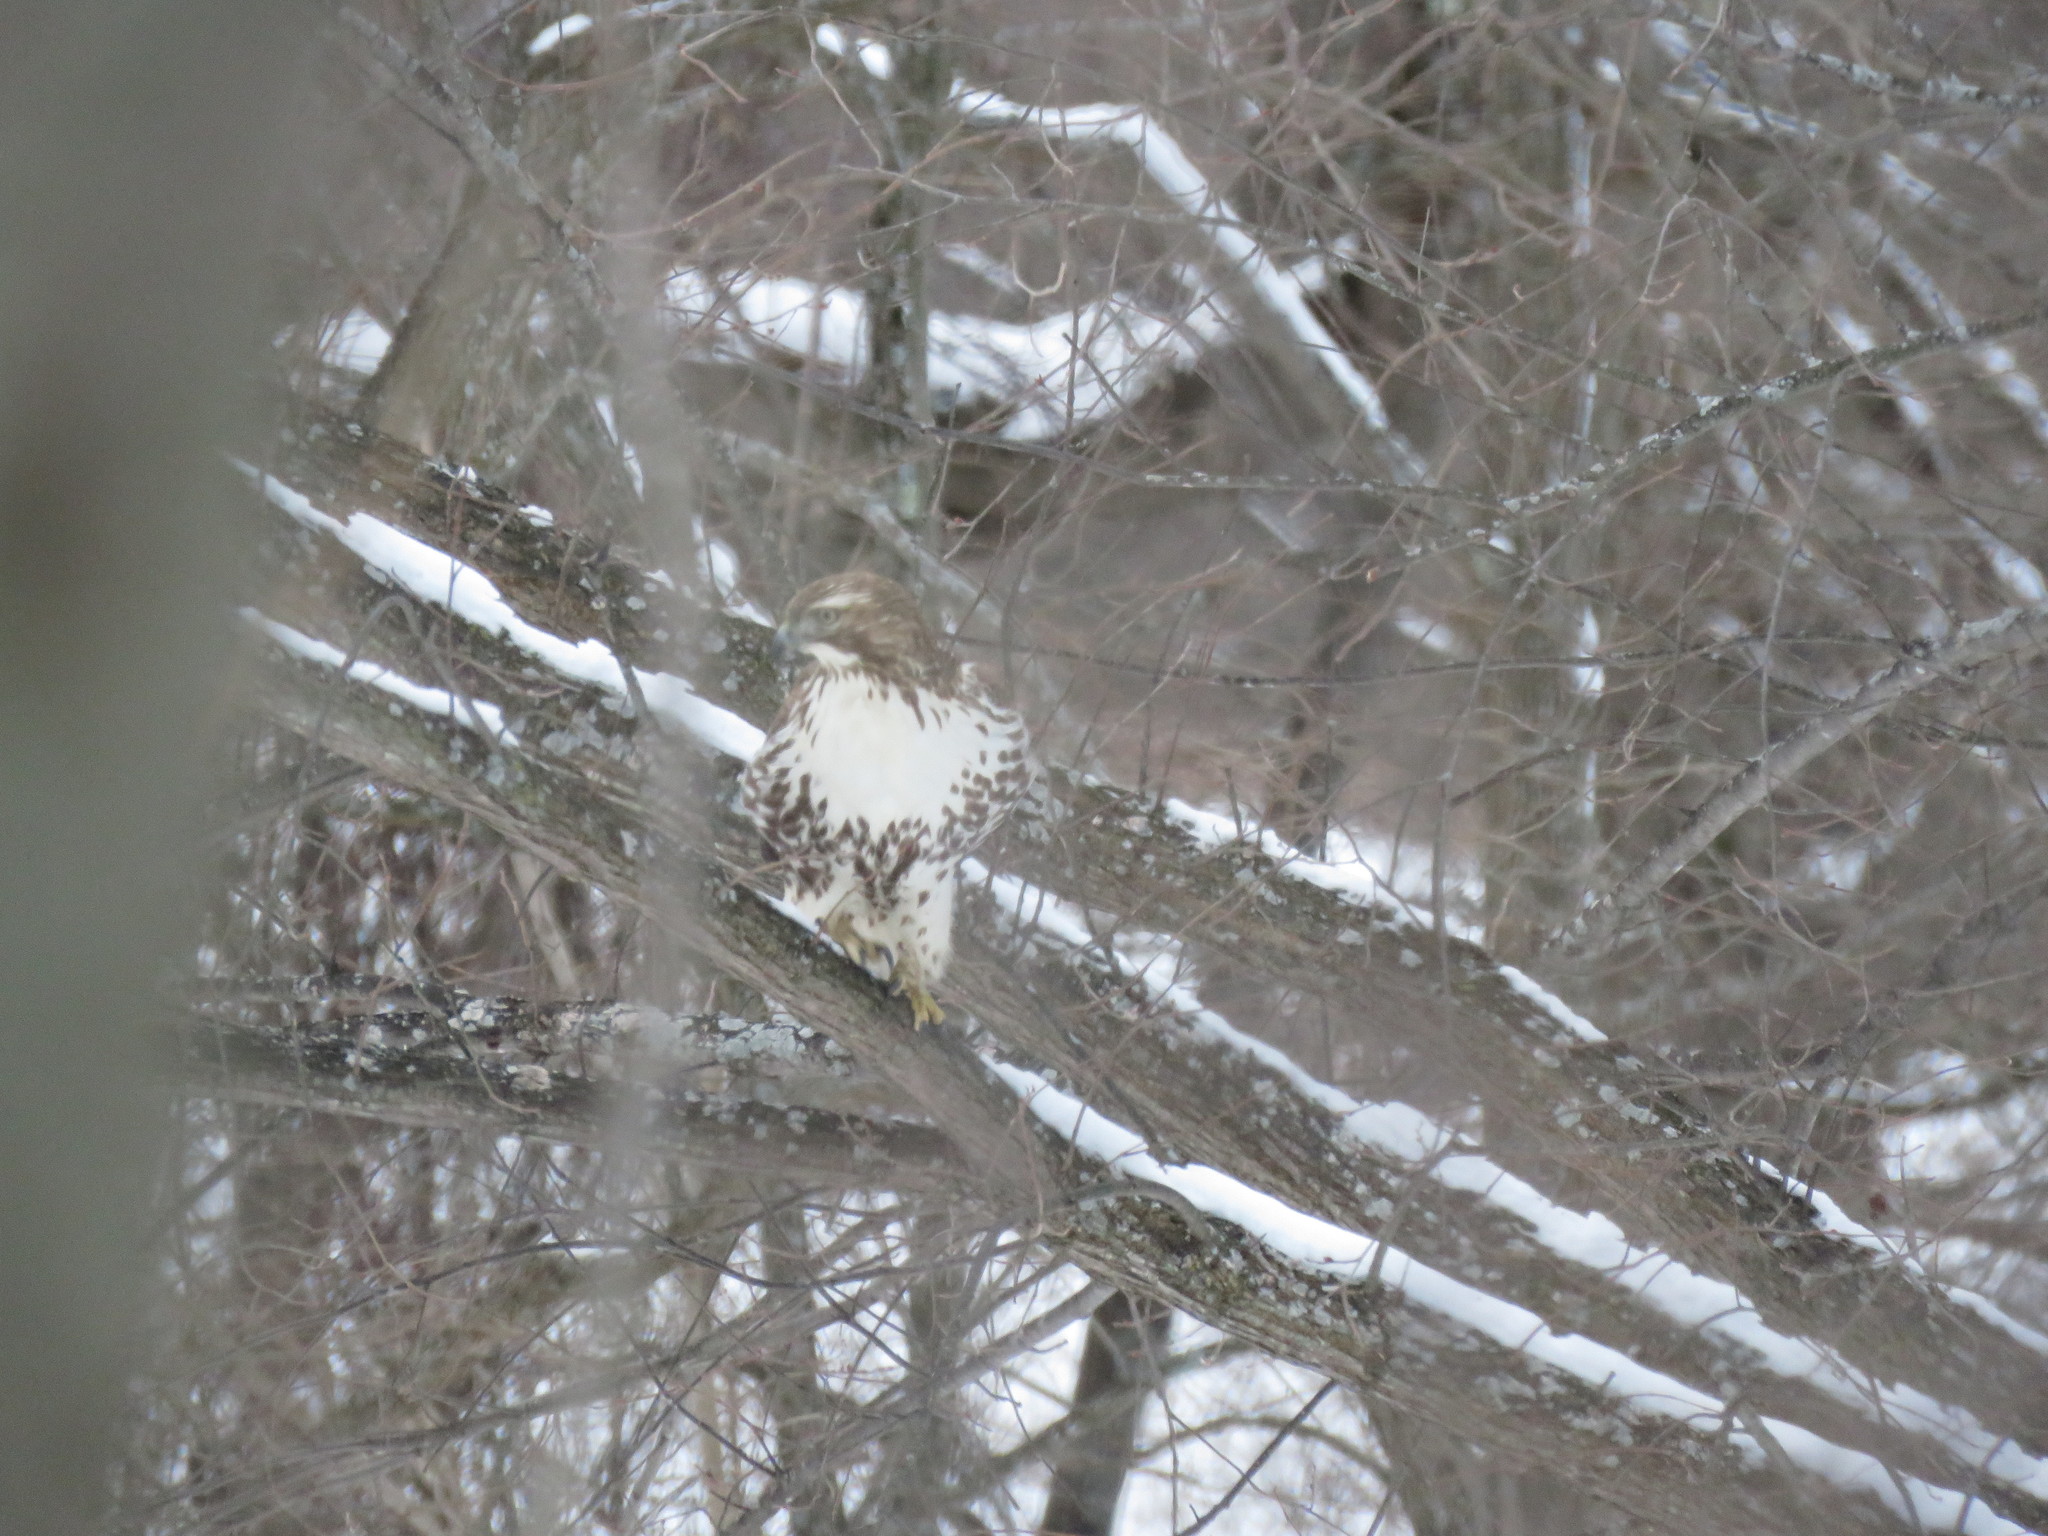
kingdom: Animalia
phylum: Chordata
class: Aves
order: Accipitriformes
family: Accipitridae
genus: Buteo
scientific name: Buteo jamaicensis
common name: Red-tailed hawk
